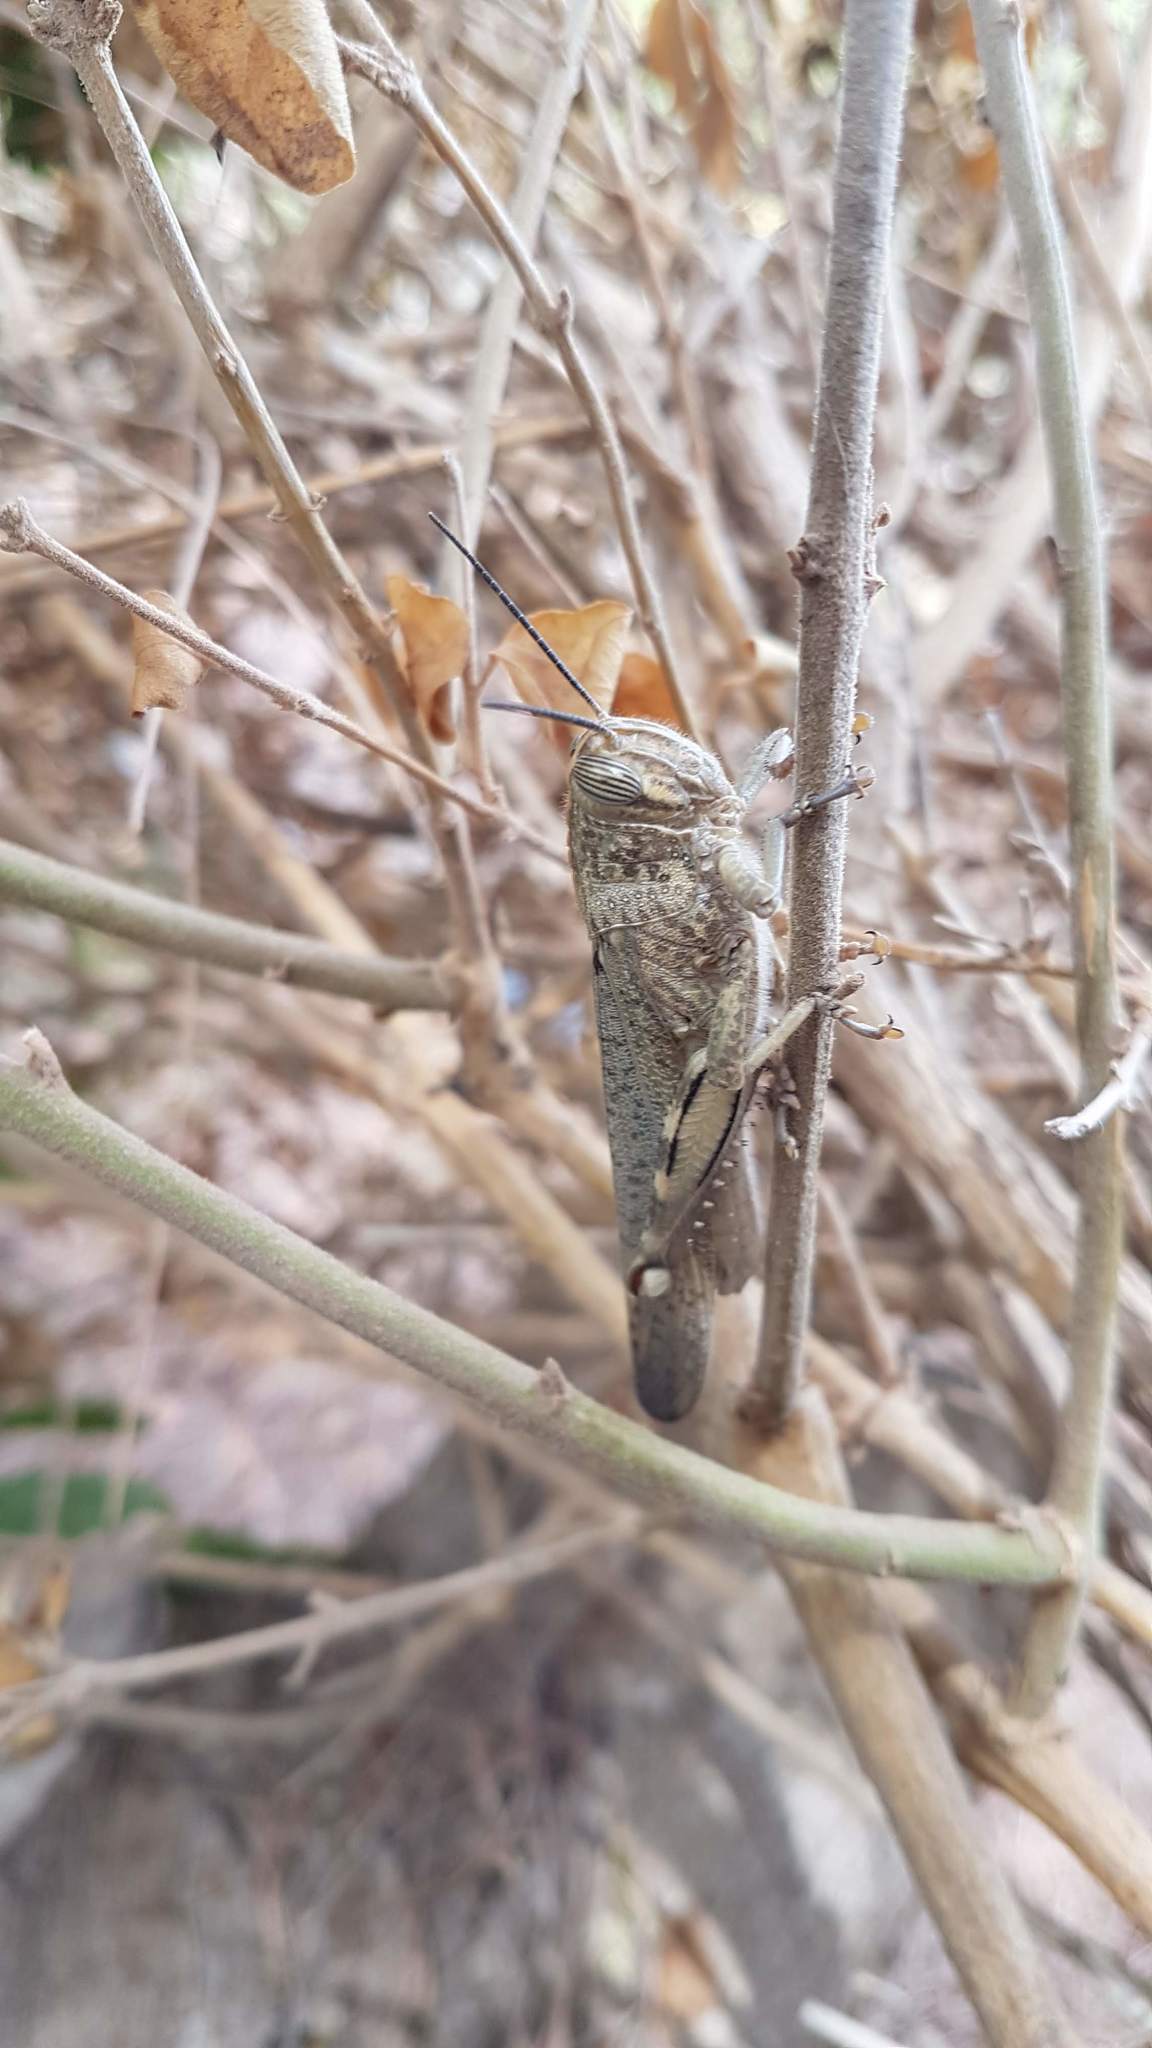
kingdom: Animalia
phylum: Arthropoda
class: Insecta
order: Orthoptera
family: Acrididae
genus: Anacridium
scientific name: Anacridium aegyptium
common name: Egyptian grasshopper
